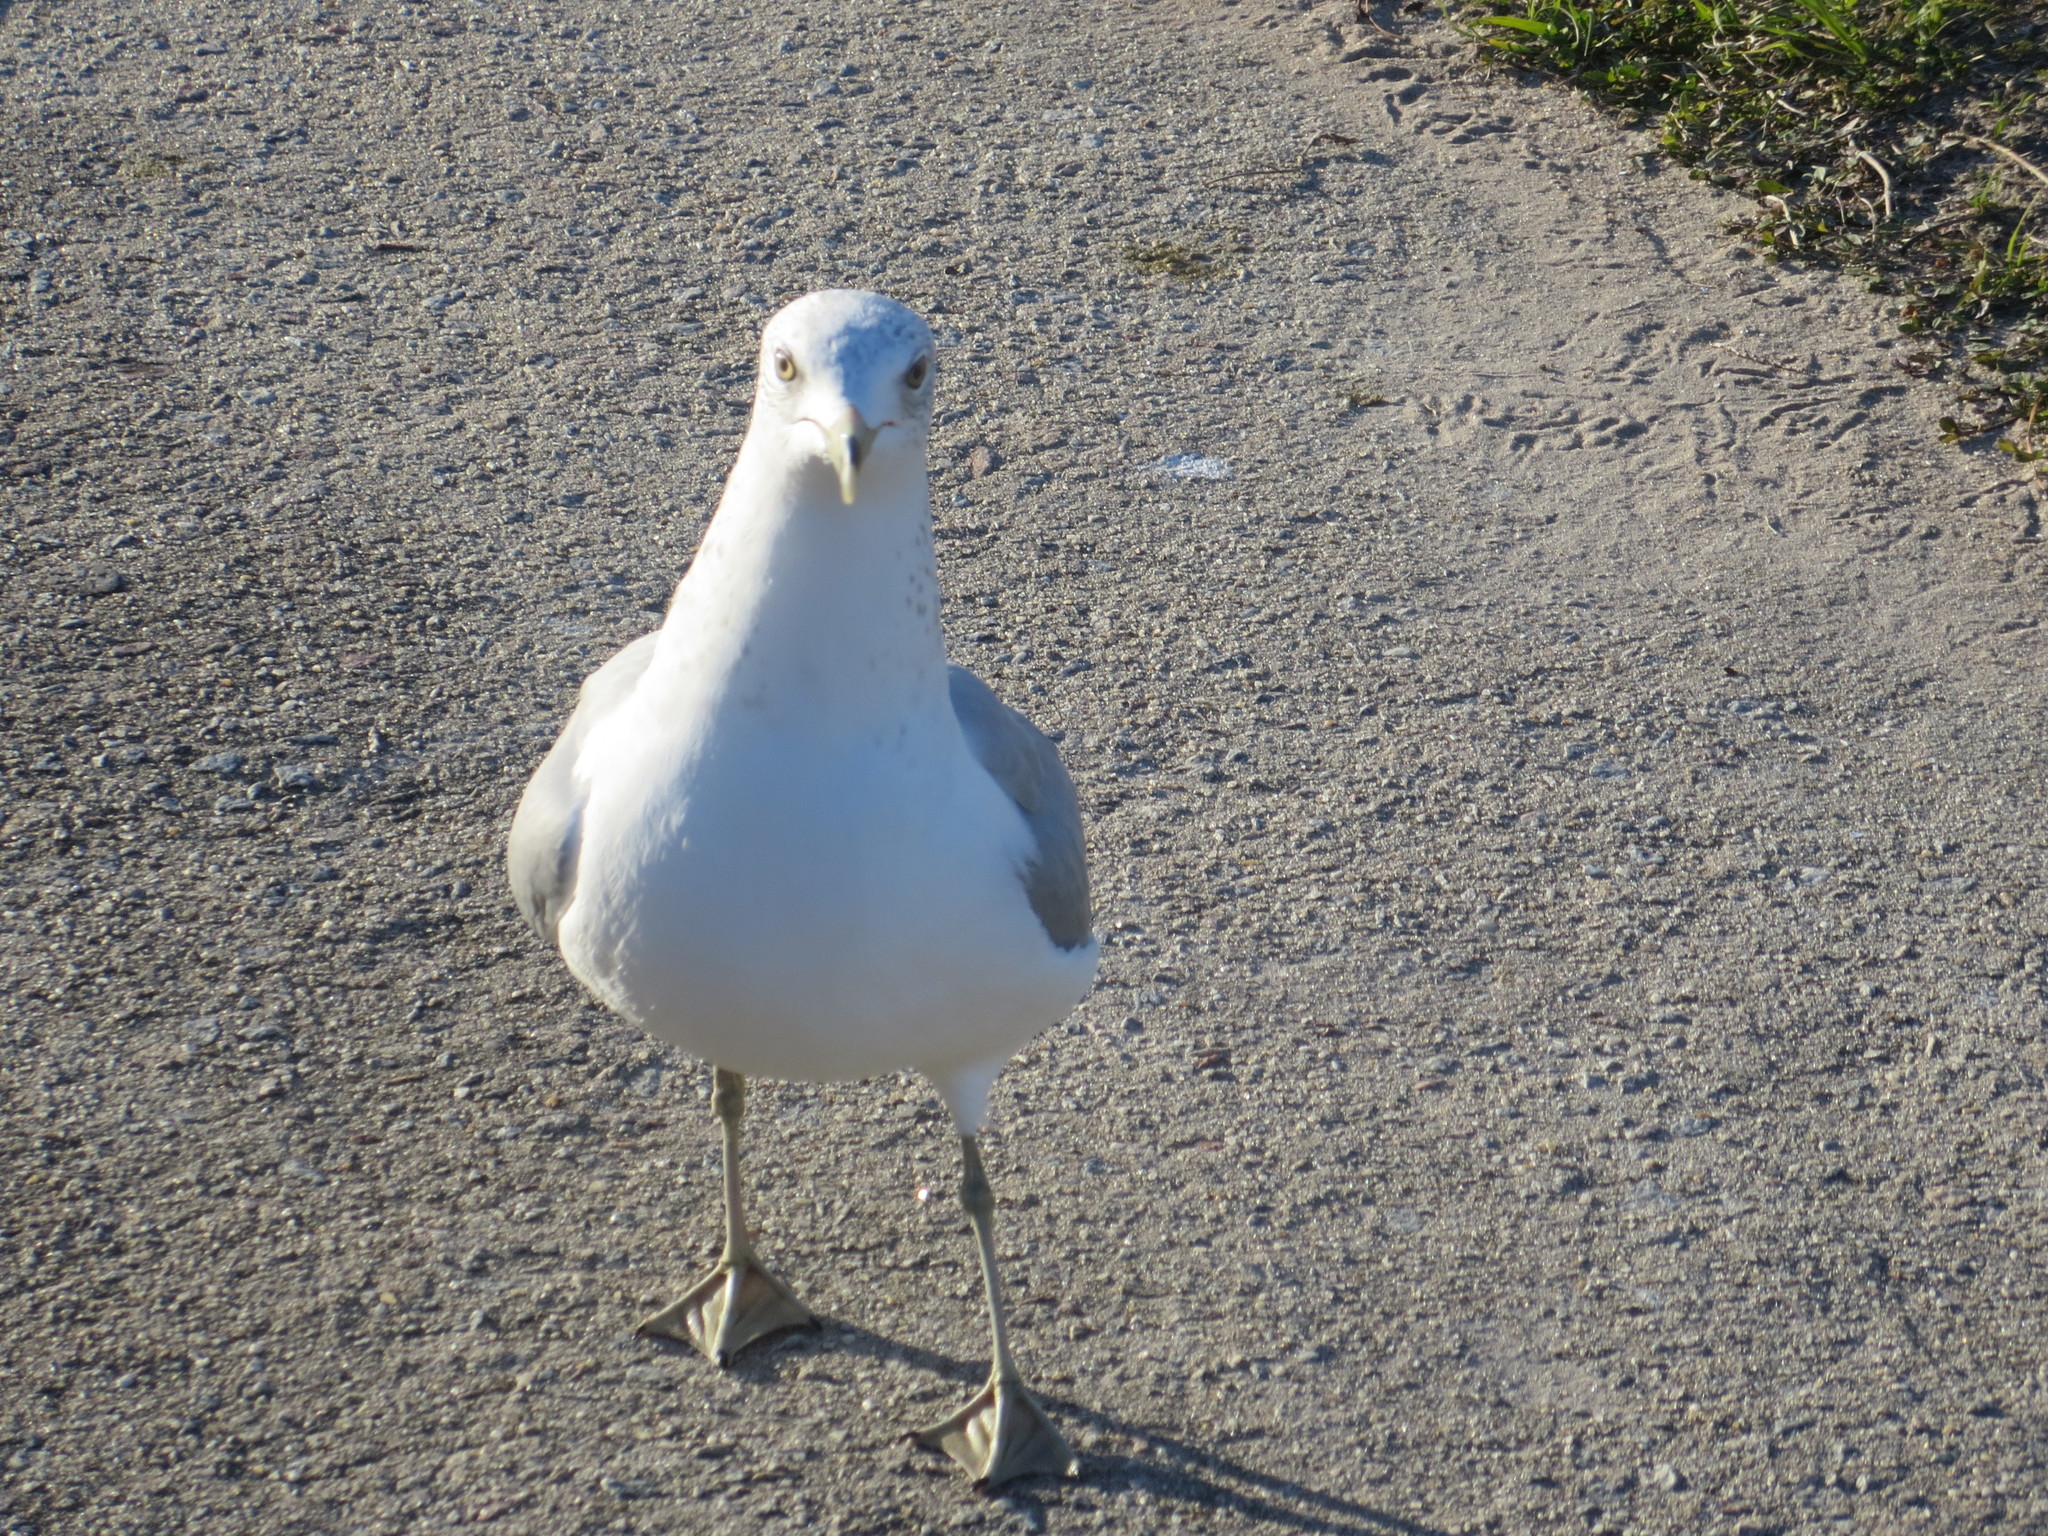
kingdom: Animalia
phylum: Chordata
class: Aves
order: Charadriiformes
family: Laridae
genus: Larus
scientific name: Larus delawarensis
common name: Ring-billed gull
